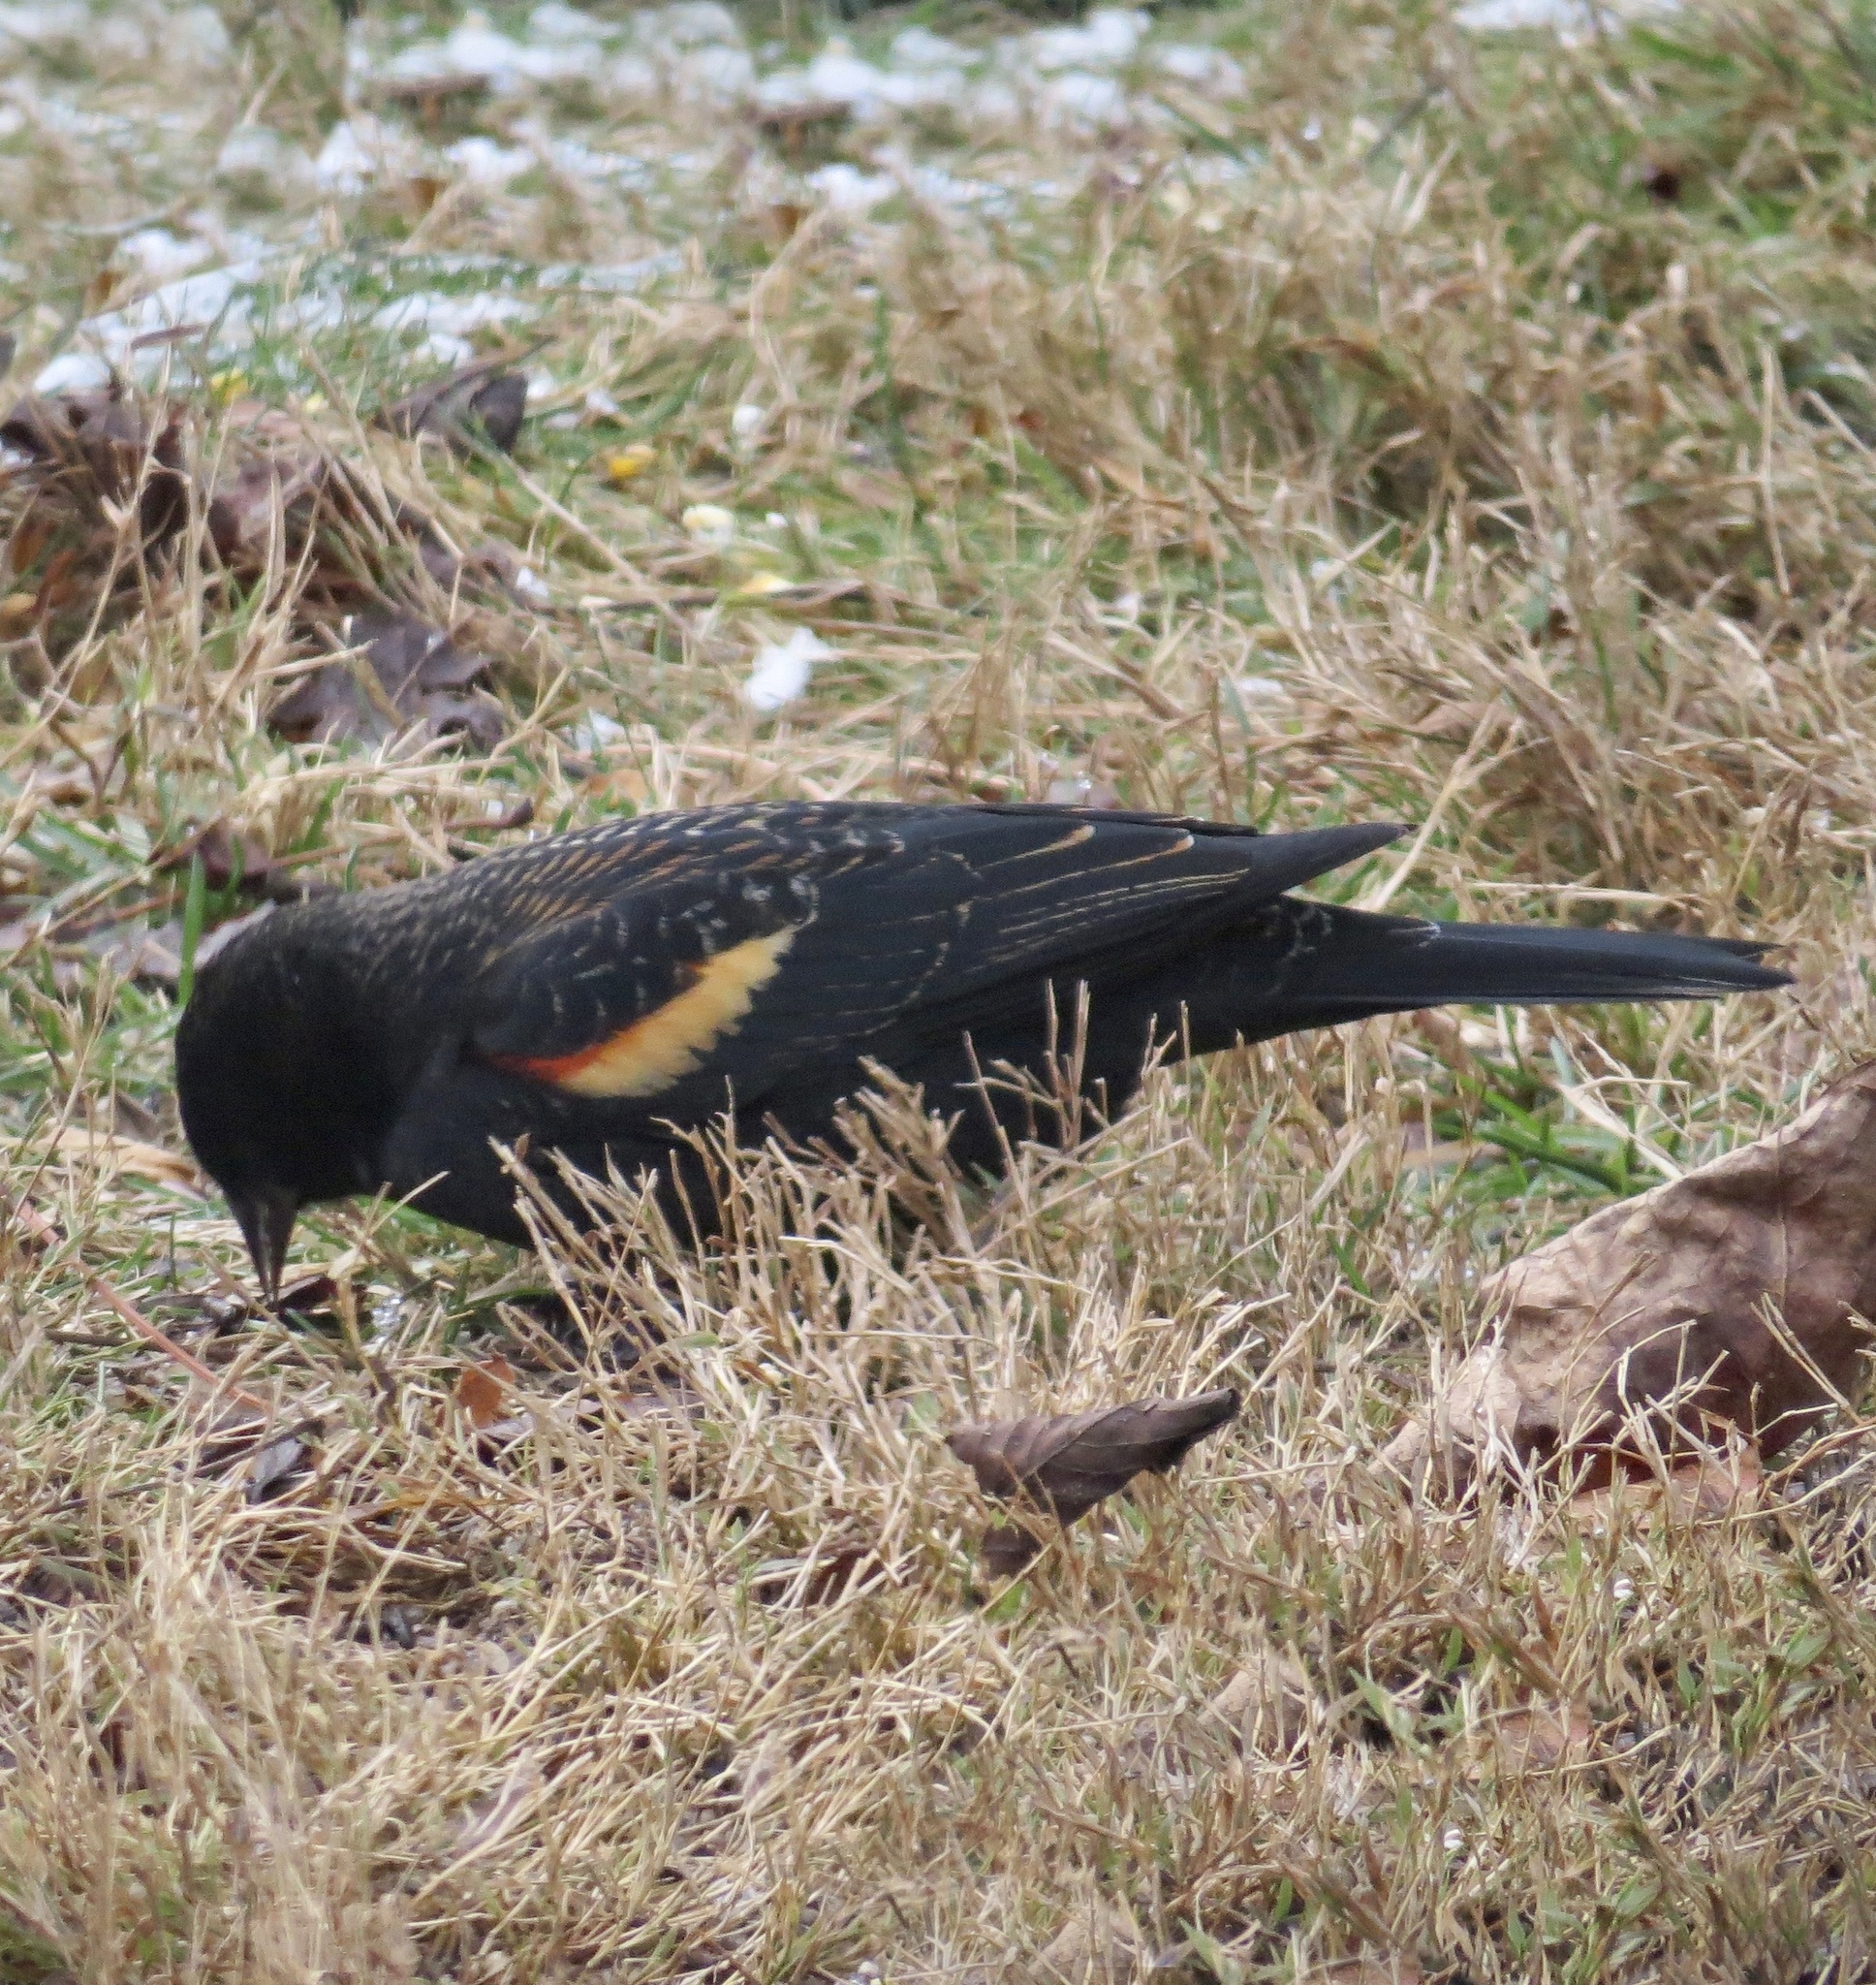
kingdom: Animalia
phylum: Chordata
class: Aves
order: Passeriformes
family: Icteridae
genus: Agelaius
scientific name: Agelaius phoeniceus
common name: Red-winged blackbird
